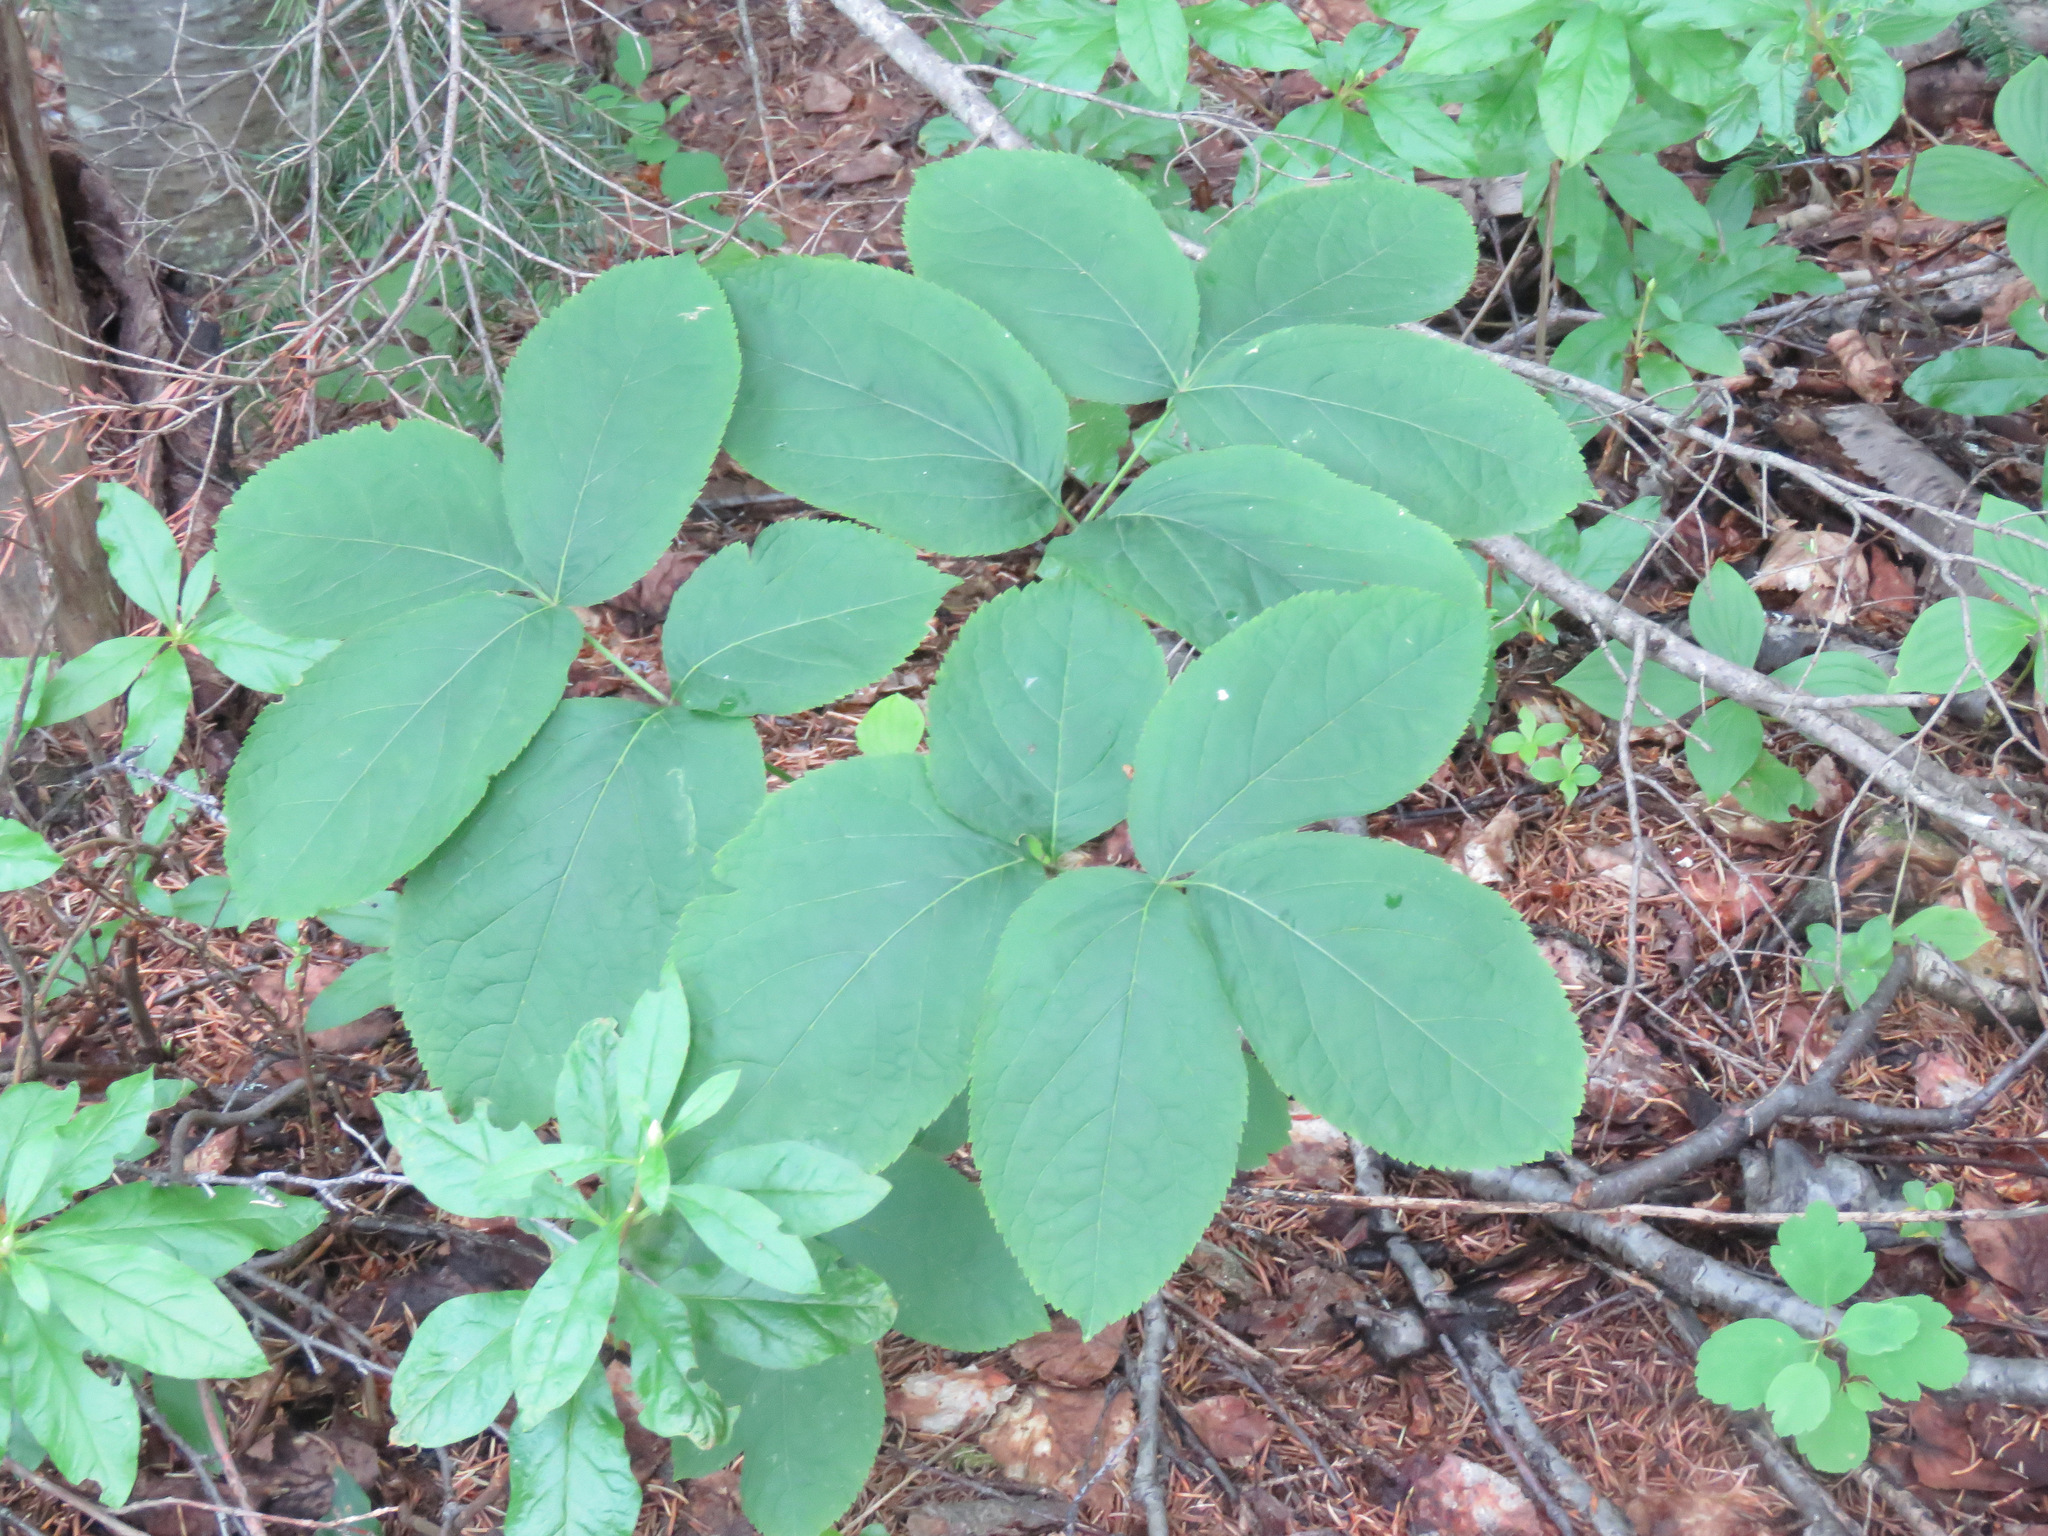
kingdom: Plantae
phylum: Tracheophyta
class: Magnoliopsida
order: Apiales
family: Araliaceae
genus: Aralia
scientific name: Aralia nudicaulis
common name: Wild sarsaparilla
